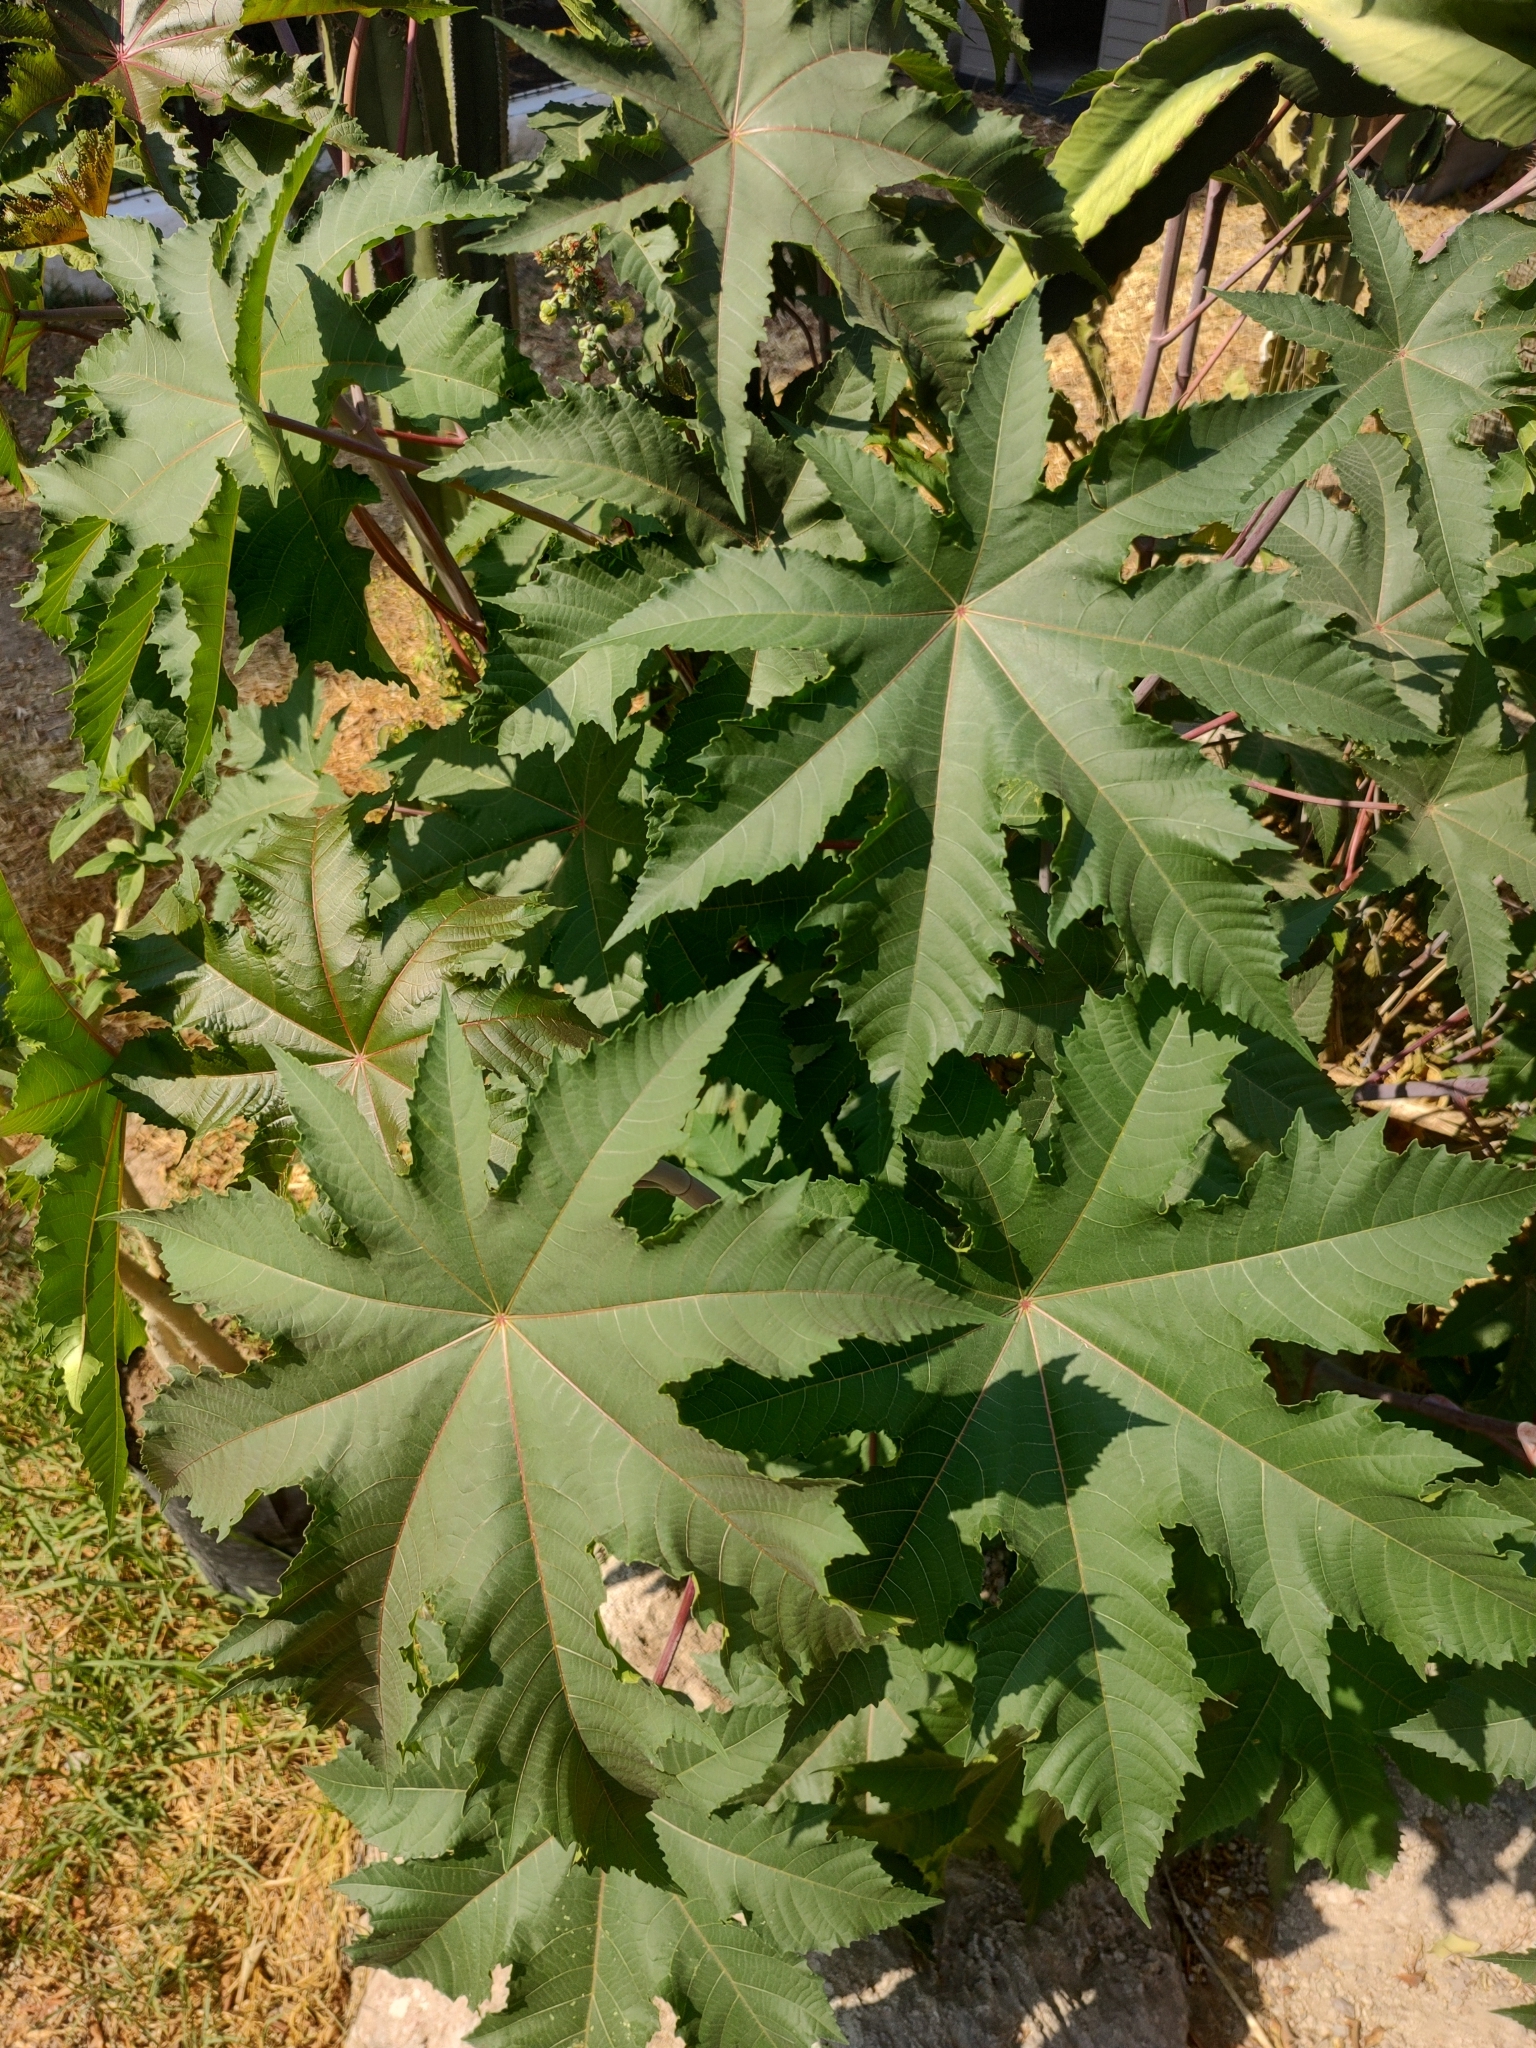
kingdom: Plantae
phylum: Tracheophyta
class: Magnoliopsida
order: Malpighiales
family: Euphorbiaceae
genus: Ricinus
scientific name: Ricinus communis
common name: Castor-oil-plant
